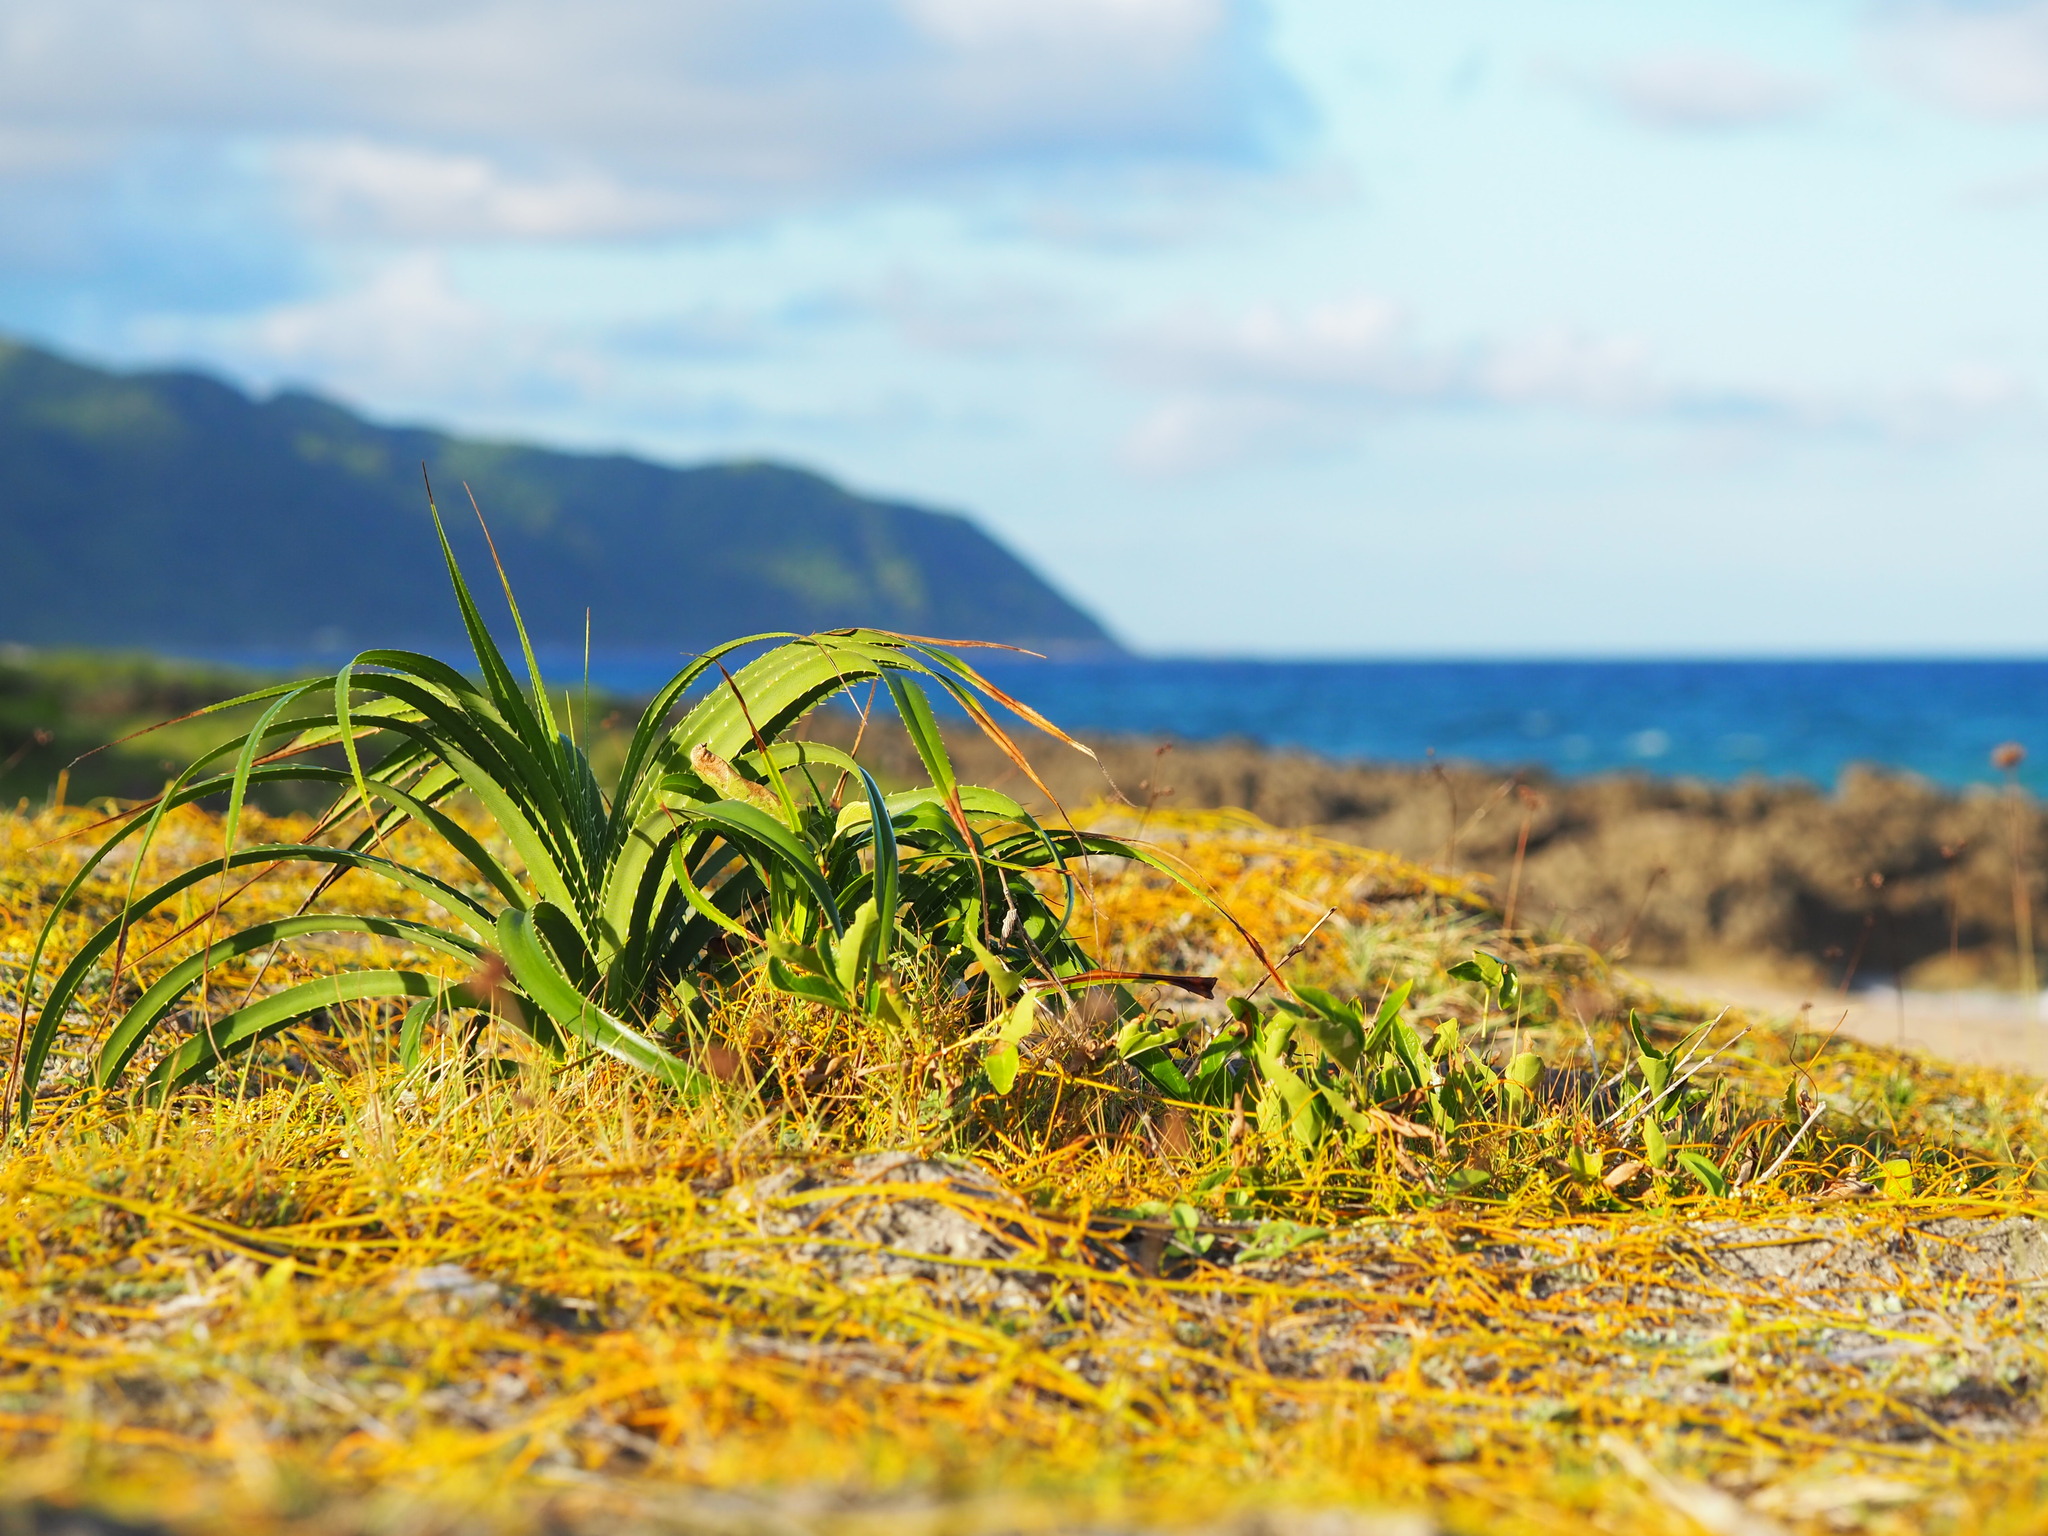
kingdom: Plantae
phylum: Tracheophyta
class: Liliopsida
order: Pandanales
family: Pandanaceae
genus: Pandanus
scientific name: Pandanus odorifer
